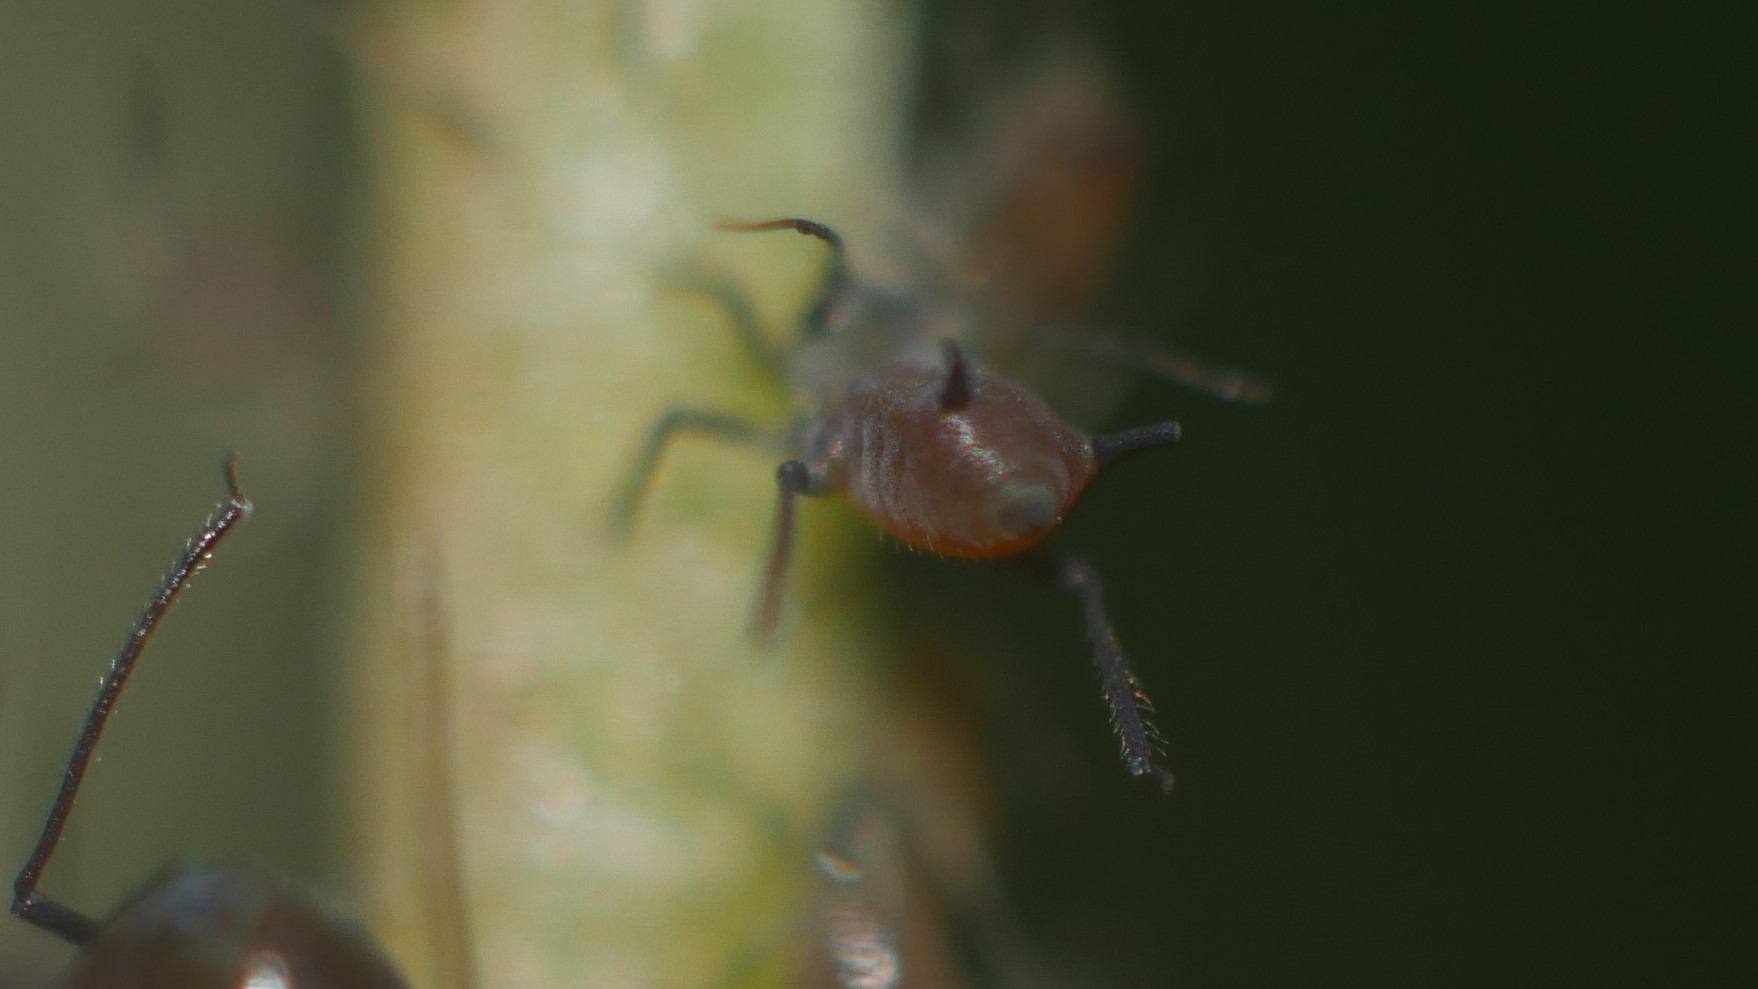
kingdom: Animalia
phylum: Arthropoda
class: Insecta
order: Hemiptera
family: Aphididae
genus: Aphis
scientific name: Aphis illinoisensis
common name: Grapevine aphid
